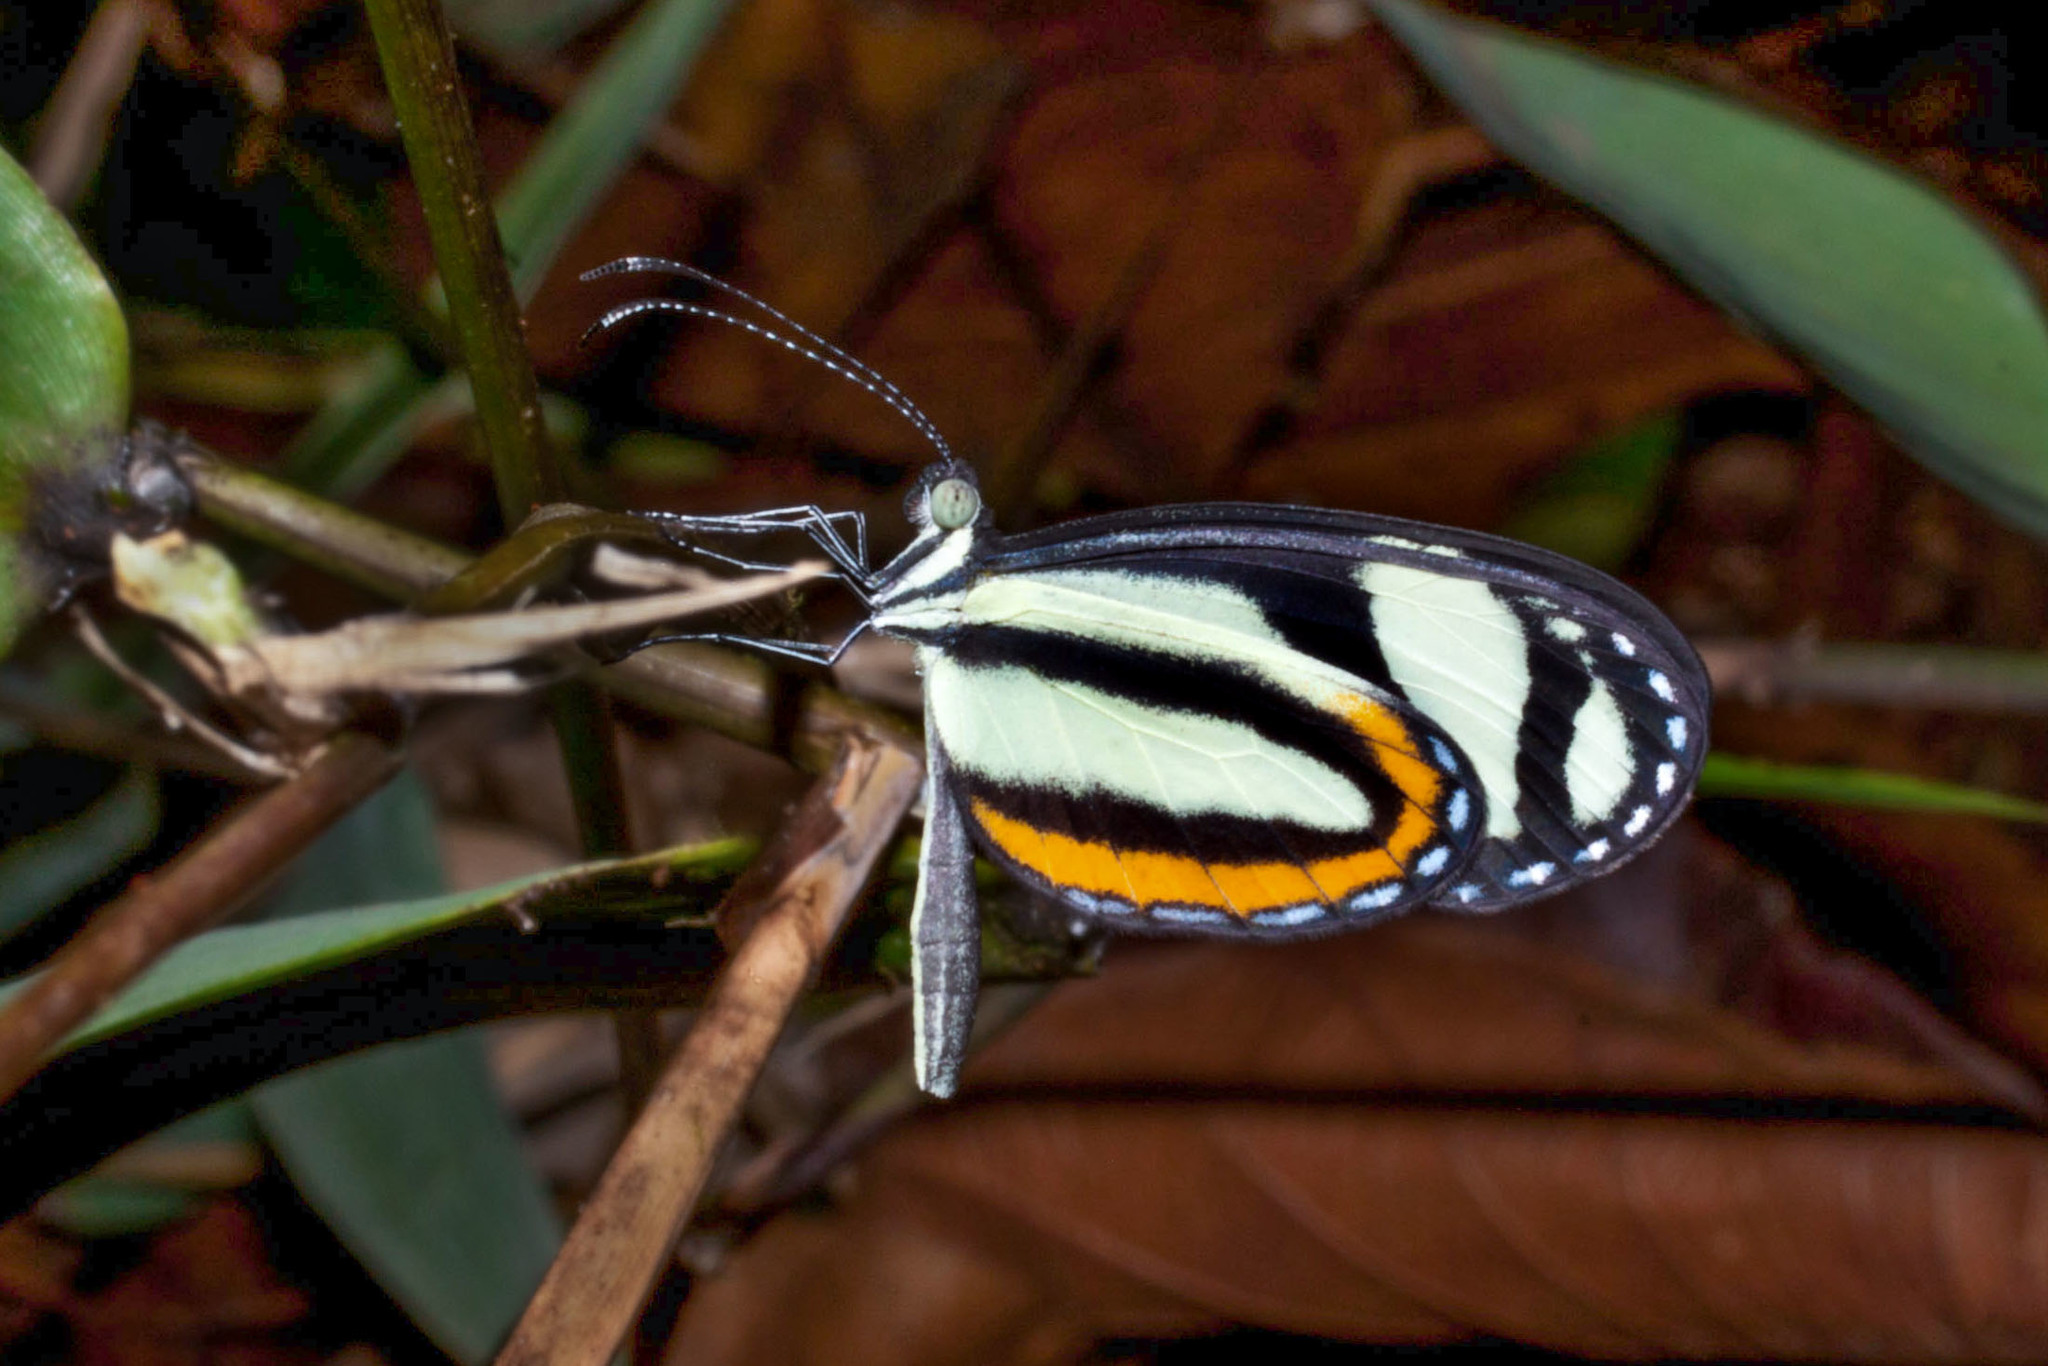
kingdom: Animalia
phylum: Arthropoda
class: Insecta
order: Lepidoptera
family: Pieridae
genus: Moschoneura
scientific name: Moschoneura pinthous
